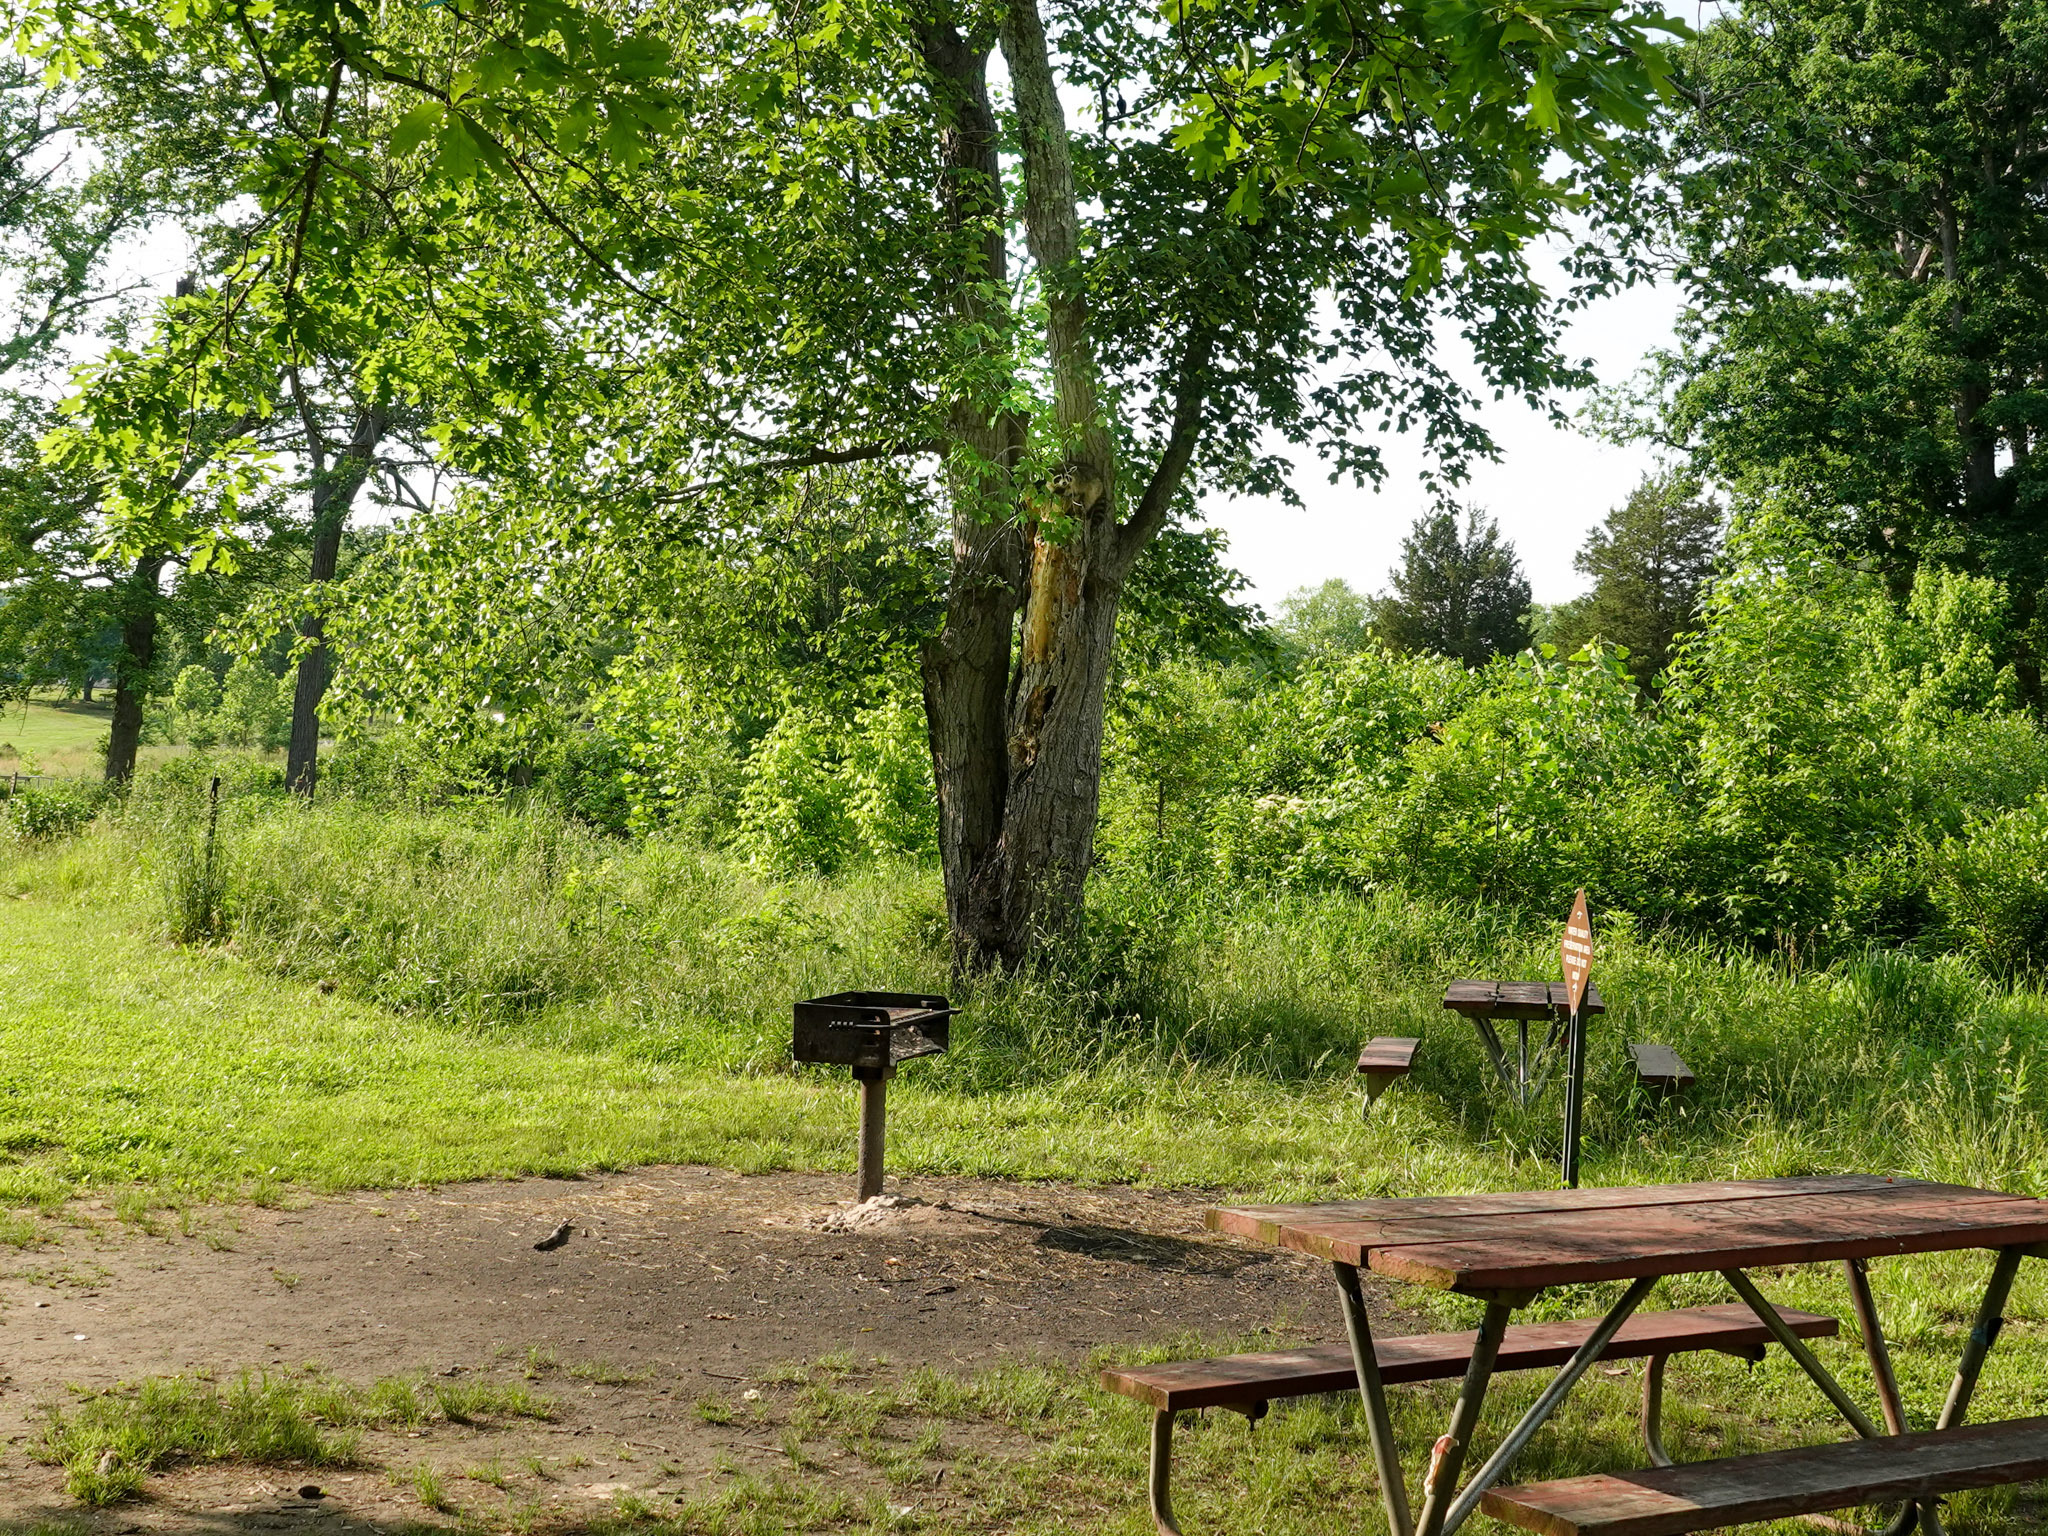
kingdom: Animalia
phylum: Chordata
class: Mammalia
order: Carnivora
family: Procyonidae
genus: Procyon
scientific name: Procyon lotor
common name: Raccoon
